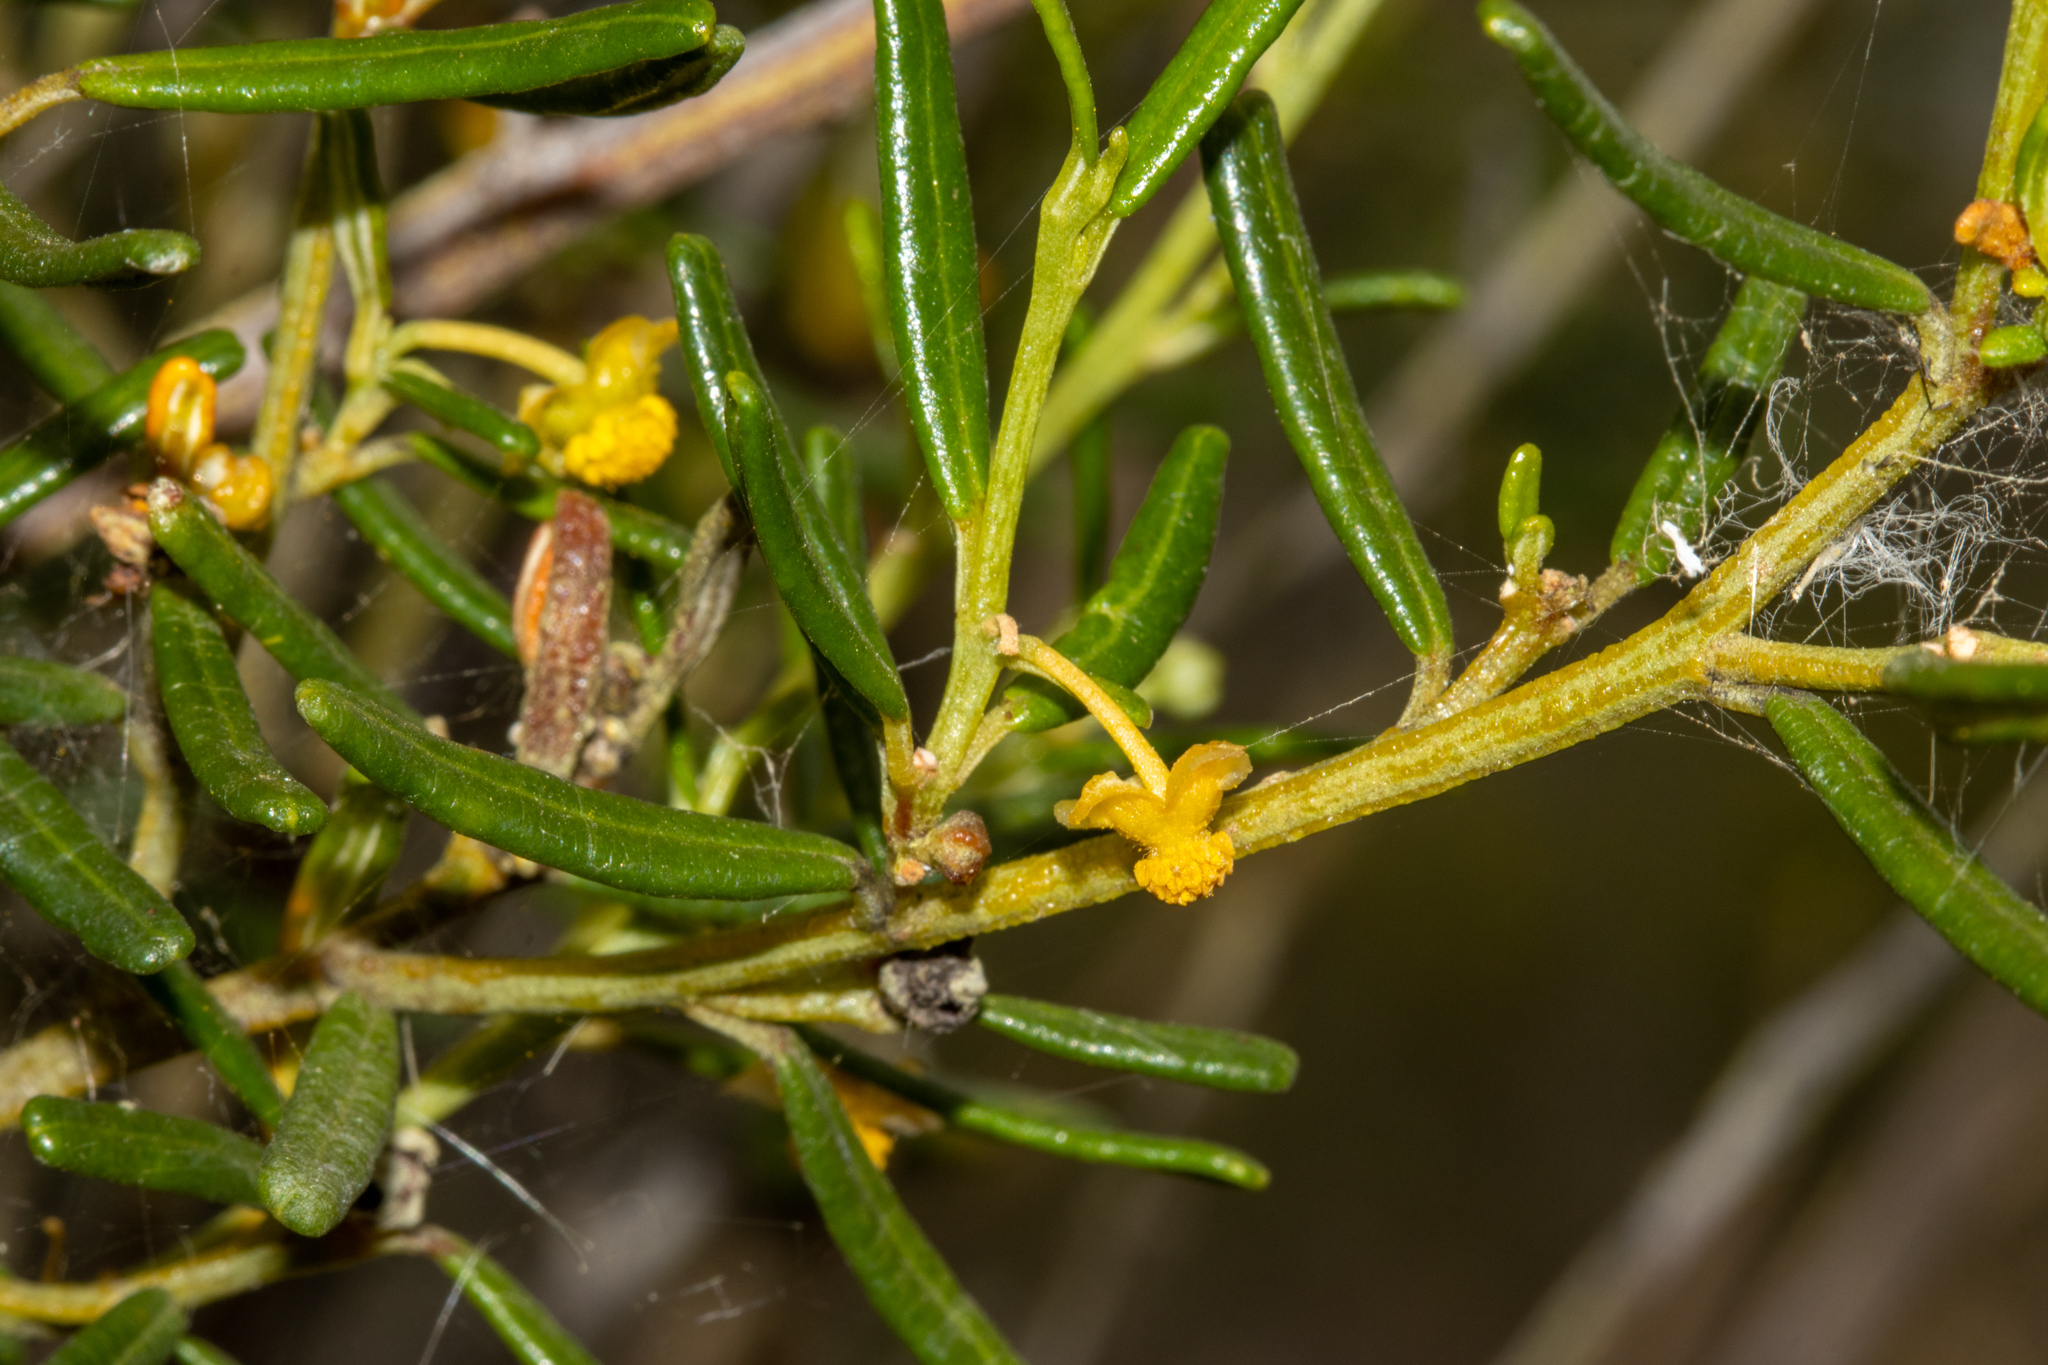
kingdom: Plantae
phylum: Tracheophyta
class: Magnoliopsida
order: Malpighiales
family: Euphorbiaceae
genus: Beyeria
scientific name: Beyeria lechenaultii
